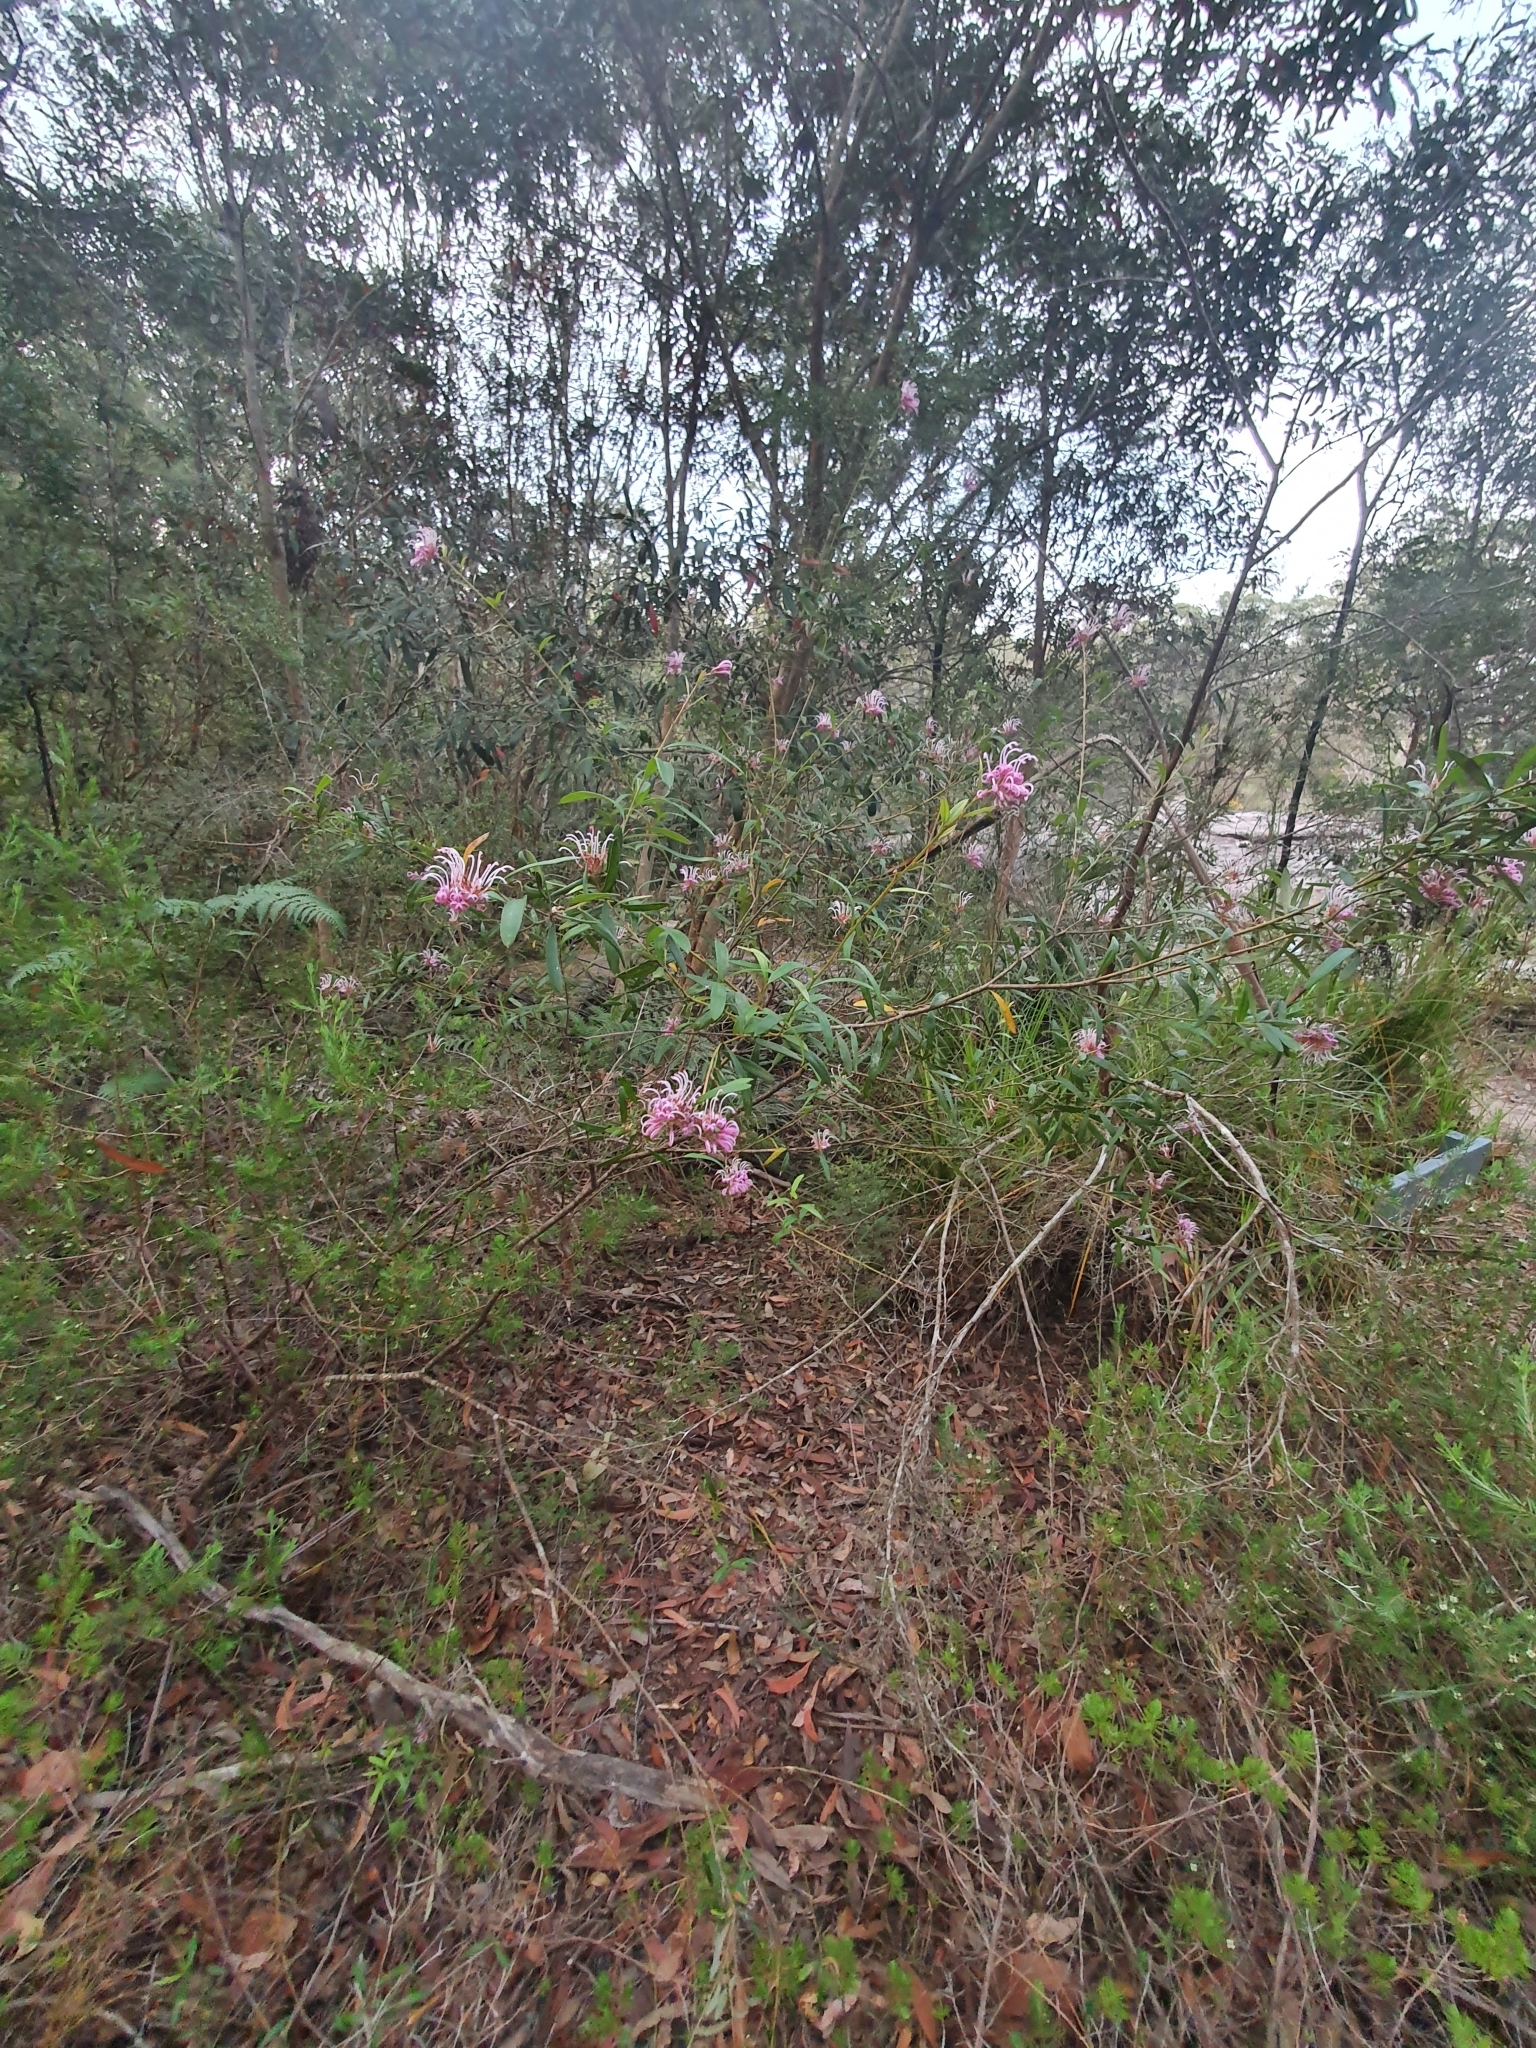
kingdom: Plantae
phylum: Tracheophyta
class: Magnoliopsida
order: Proteales
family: Proteaceae
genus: Grevillea
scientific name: Grevillea sericea
